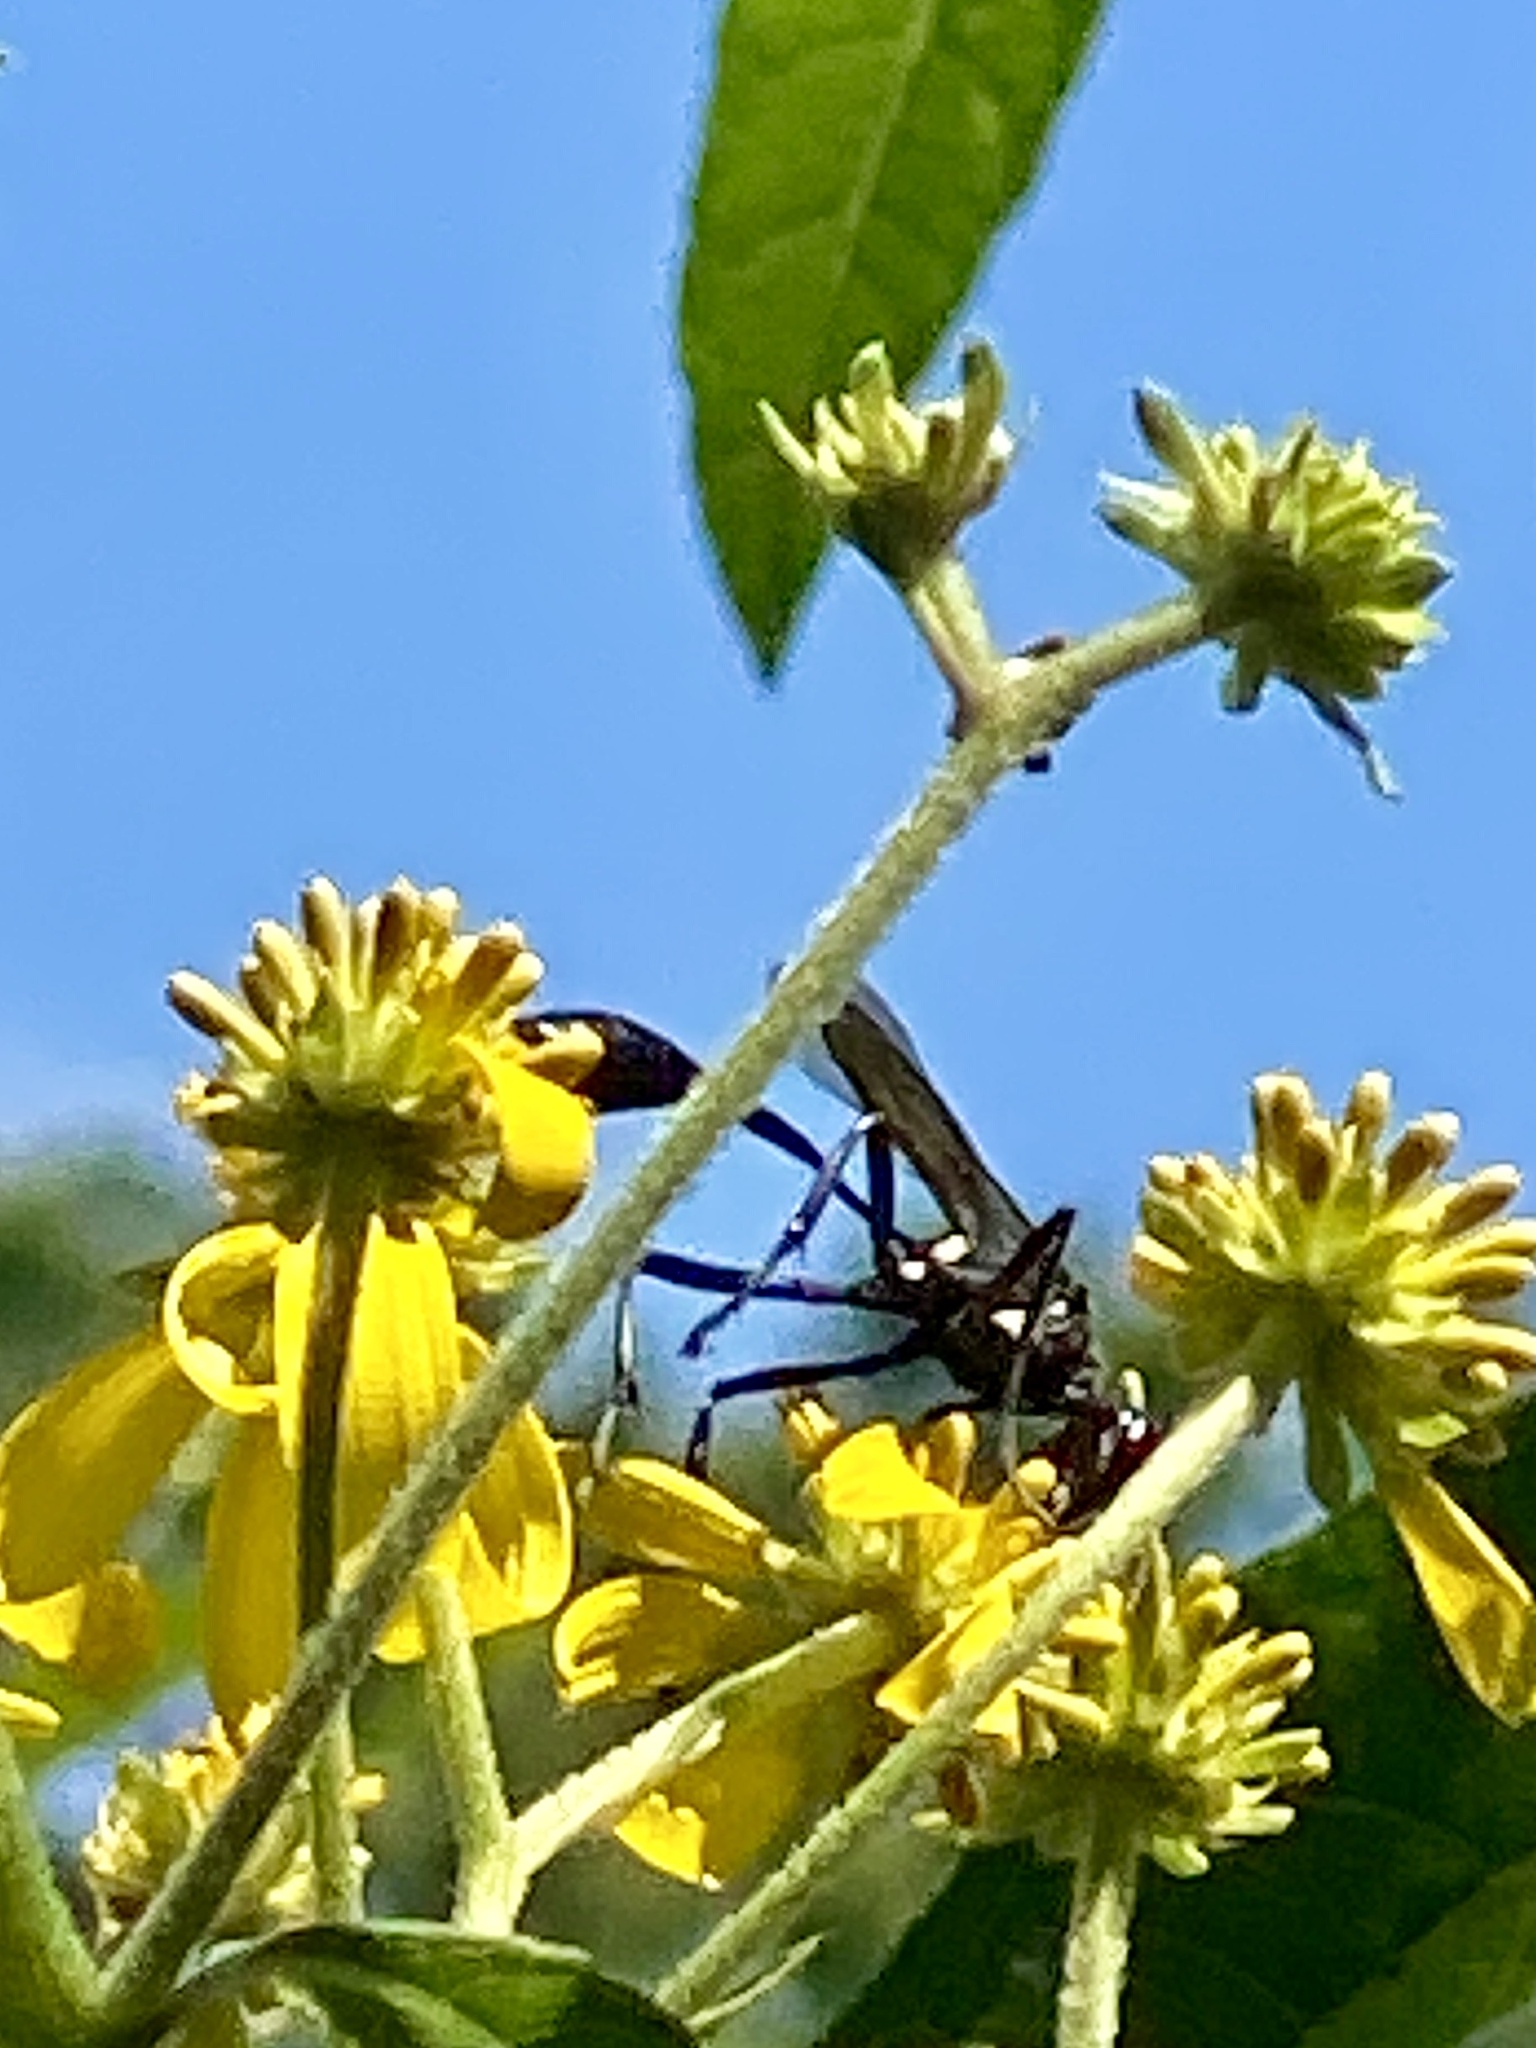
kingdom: Animalia
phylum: Arthropoda
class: Insecta
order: Hymenoptera
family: Sphecidae
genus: Eremnophila
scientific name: Eremnophila aureonotata
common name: Gold-marked thread-waisted wasp
